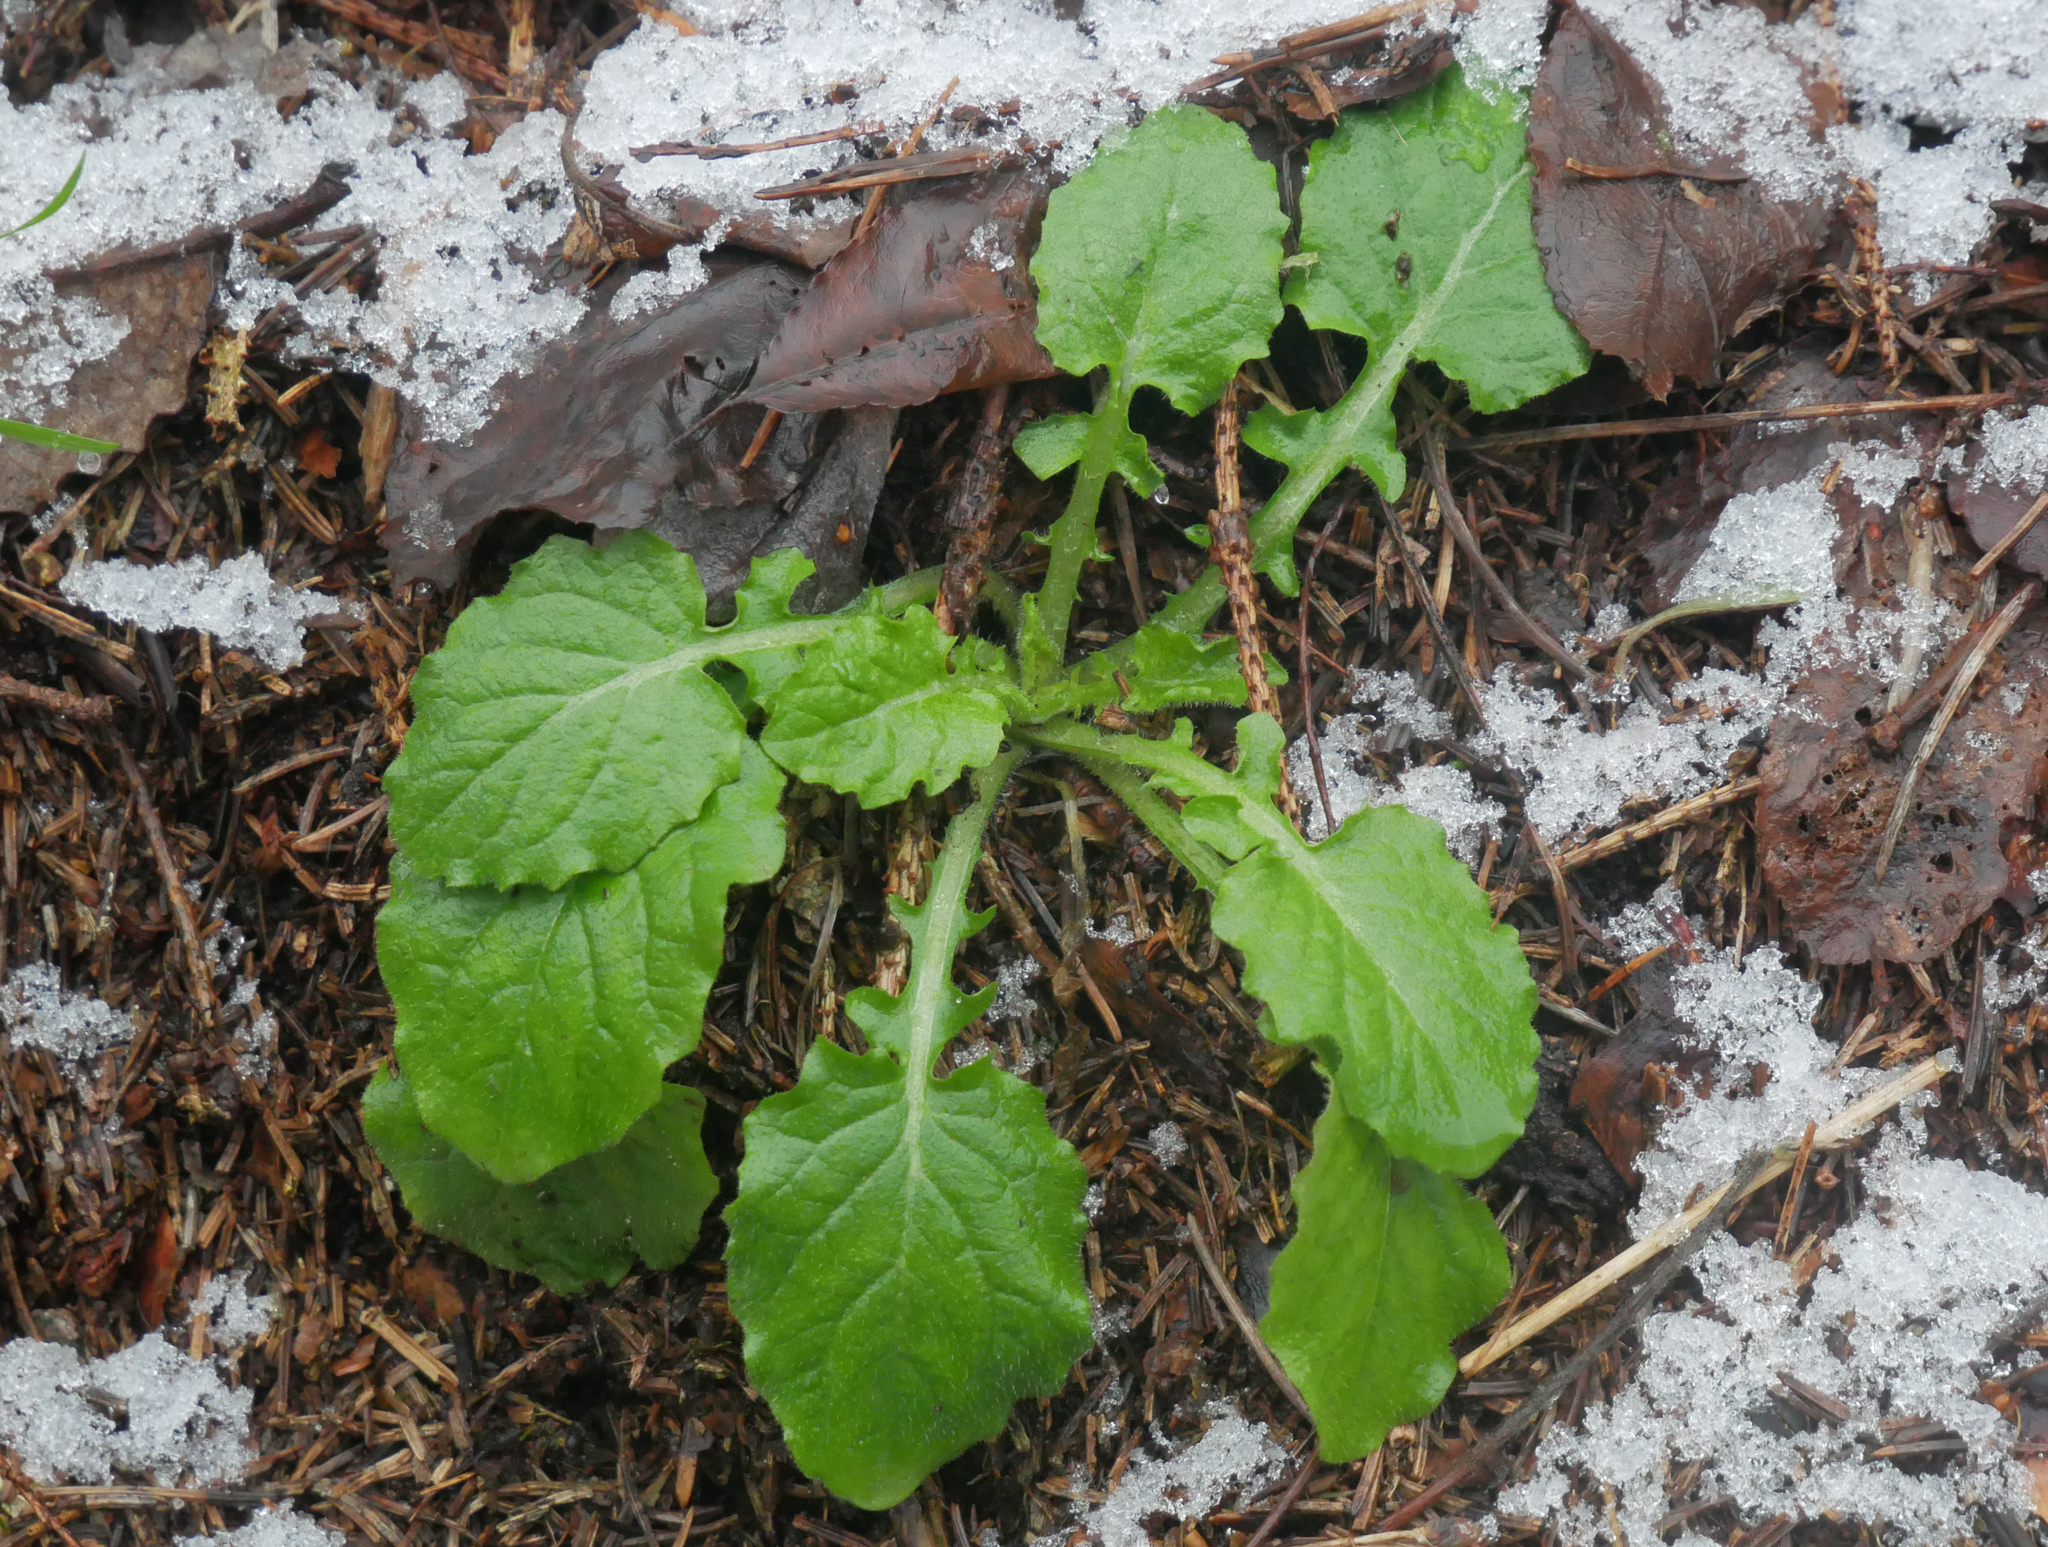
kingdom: Plantae
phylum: Tracheophyta
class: Magnoliopsida
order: Asterales
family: Asteraceae
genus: Lapsana
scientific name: Lapsana communis
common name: Nipplewort
